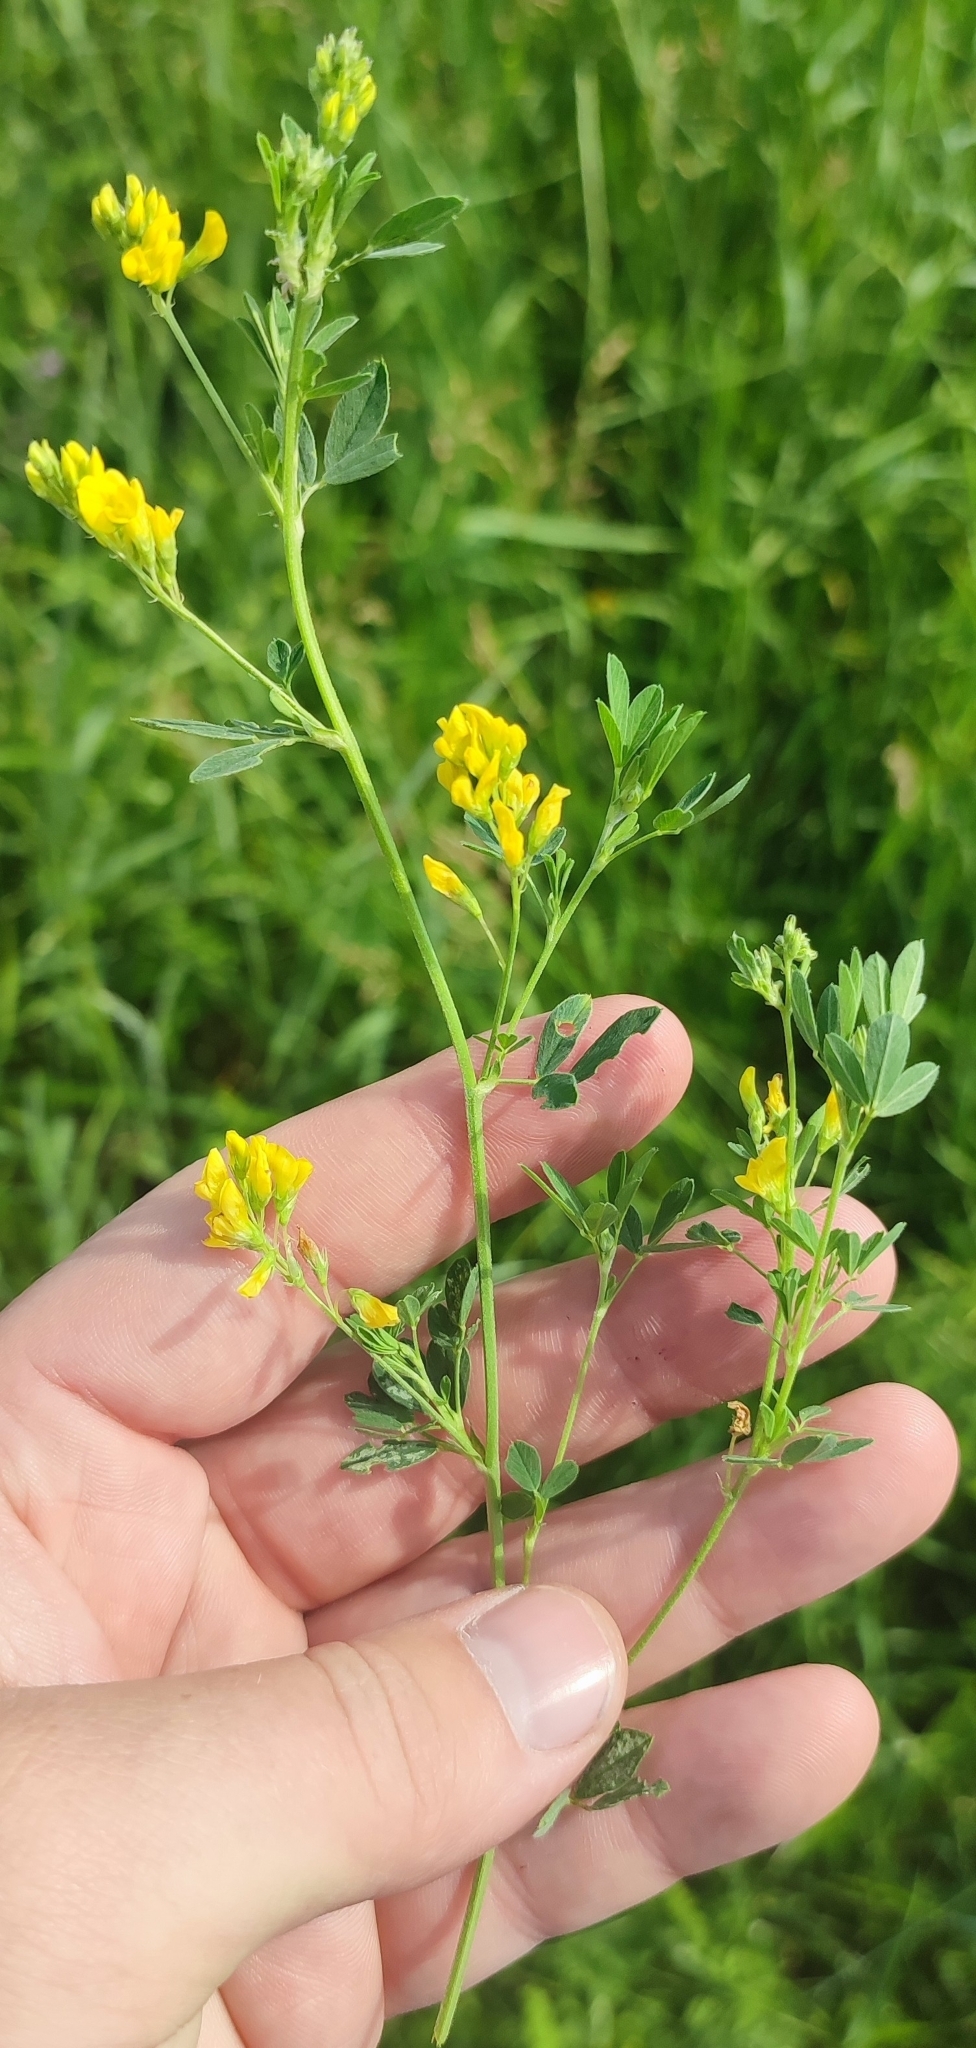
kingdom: Plantae
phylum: Tracheophyta
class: Magnoliopsida
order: Fabales
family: Fabaceae
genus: Medicago
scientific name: Medicago falcata
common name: Sickle medick
